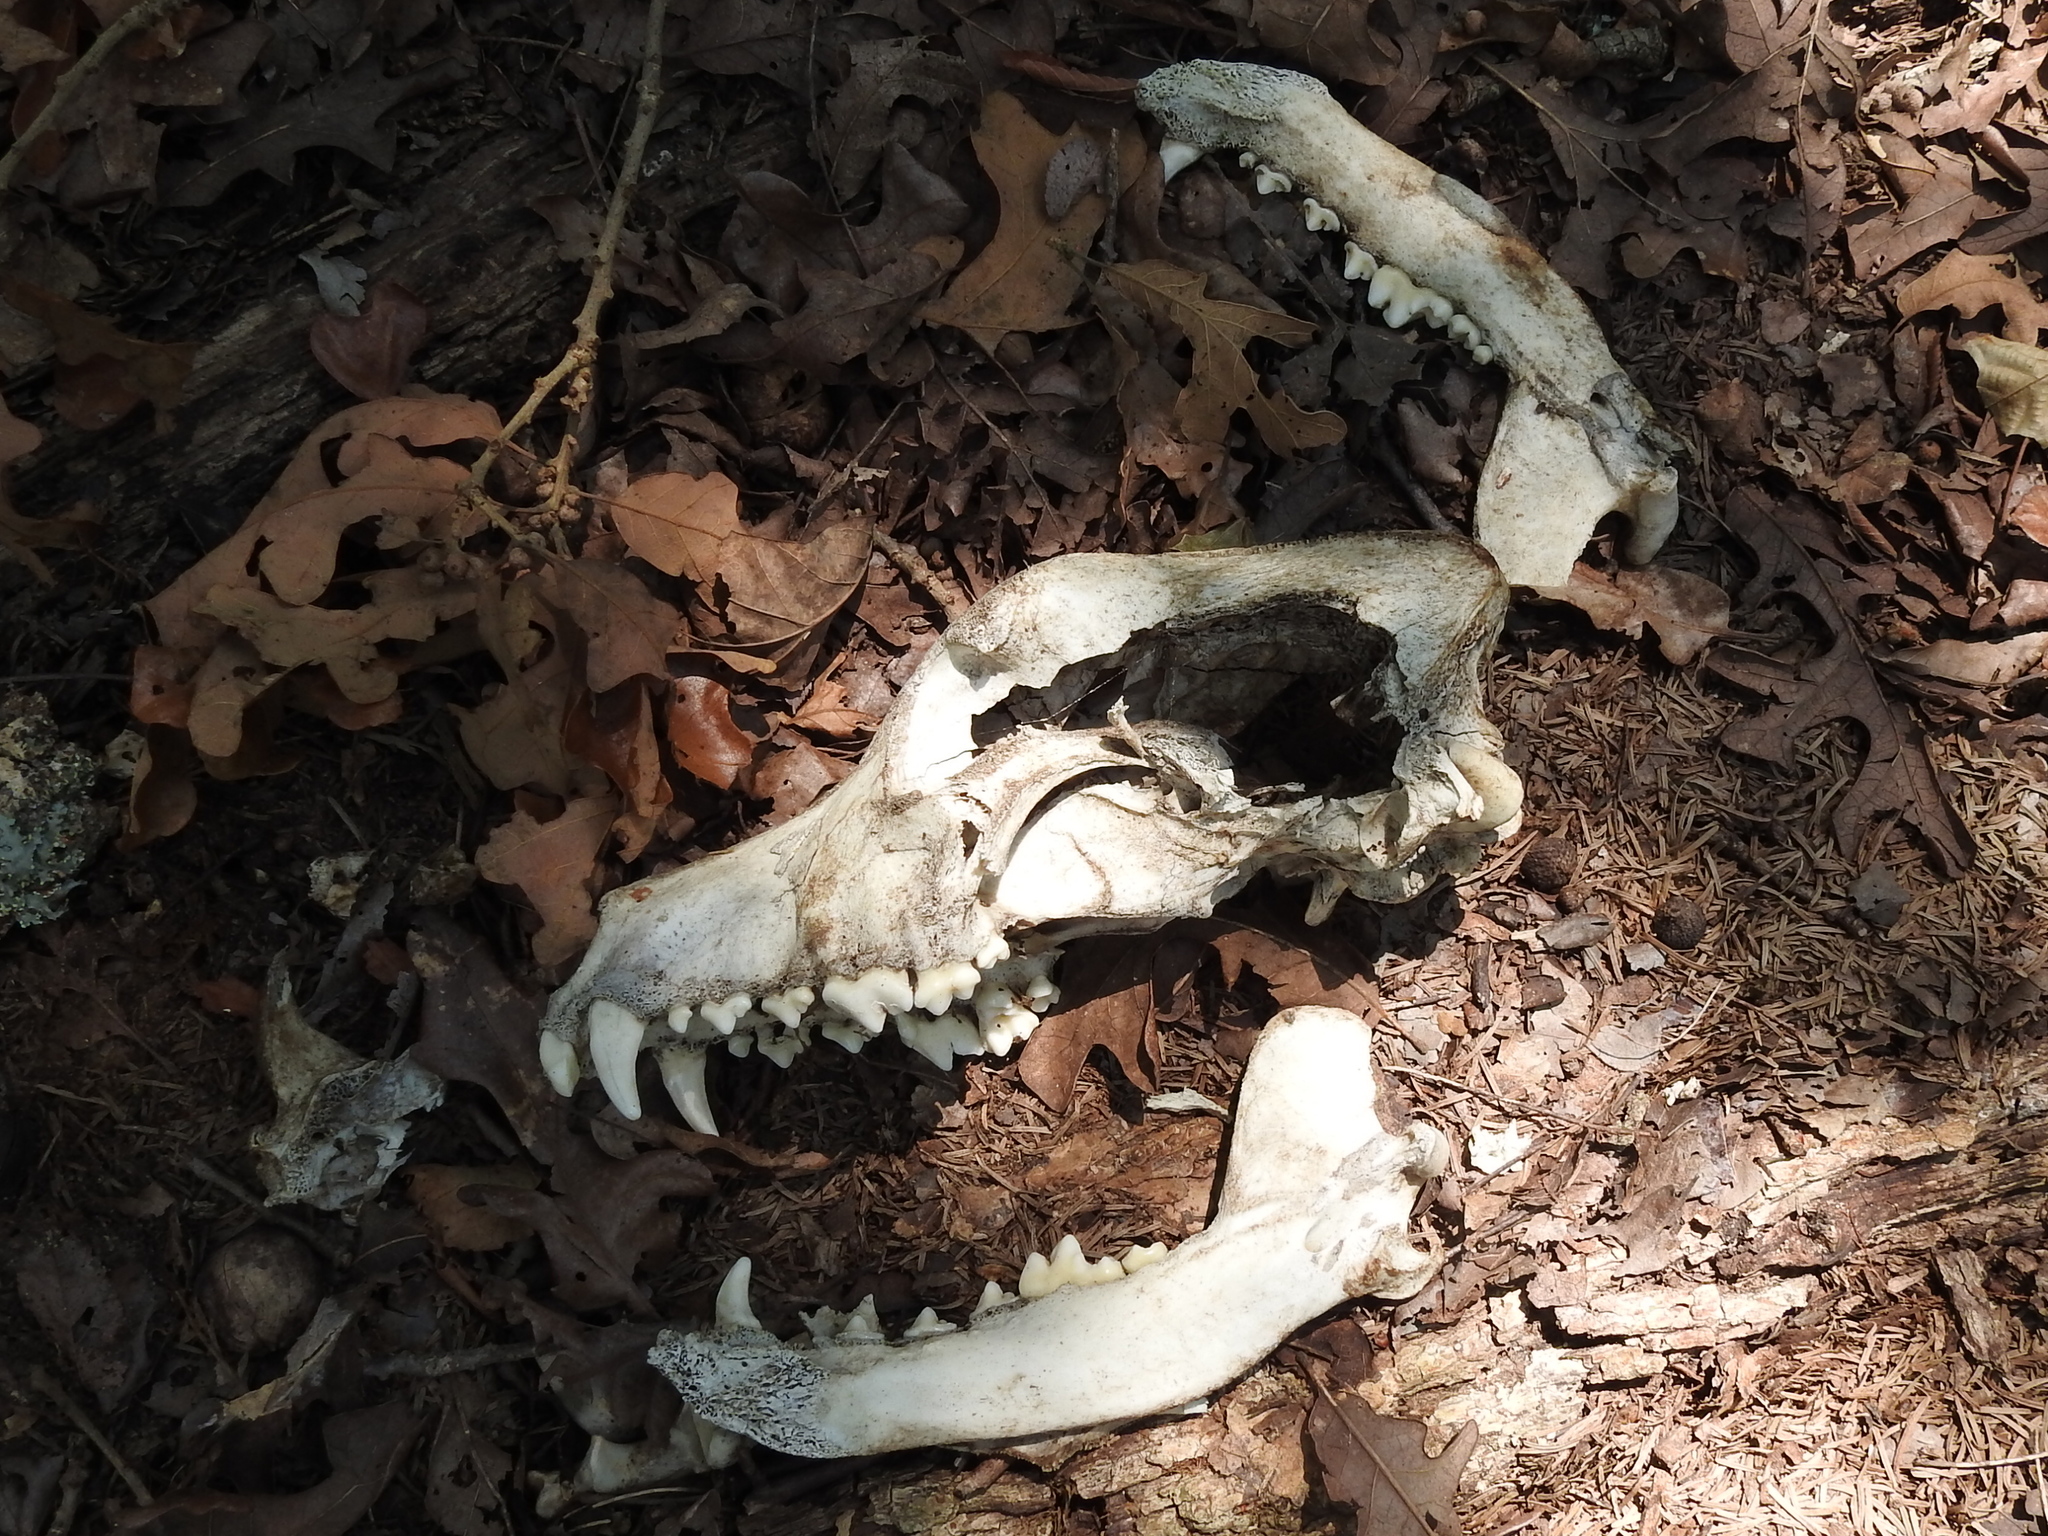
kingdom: Animalia
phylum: Chordata
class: Mammalia
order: Carnivora
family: Canidae
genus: Canis
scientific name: Canis lupus
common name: Gray wolf
